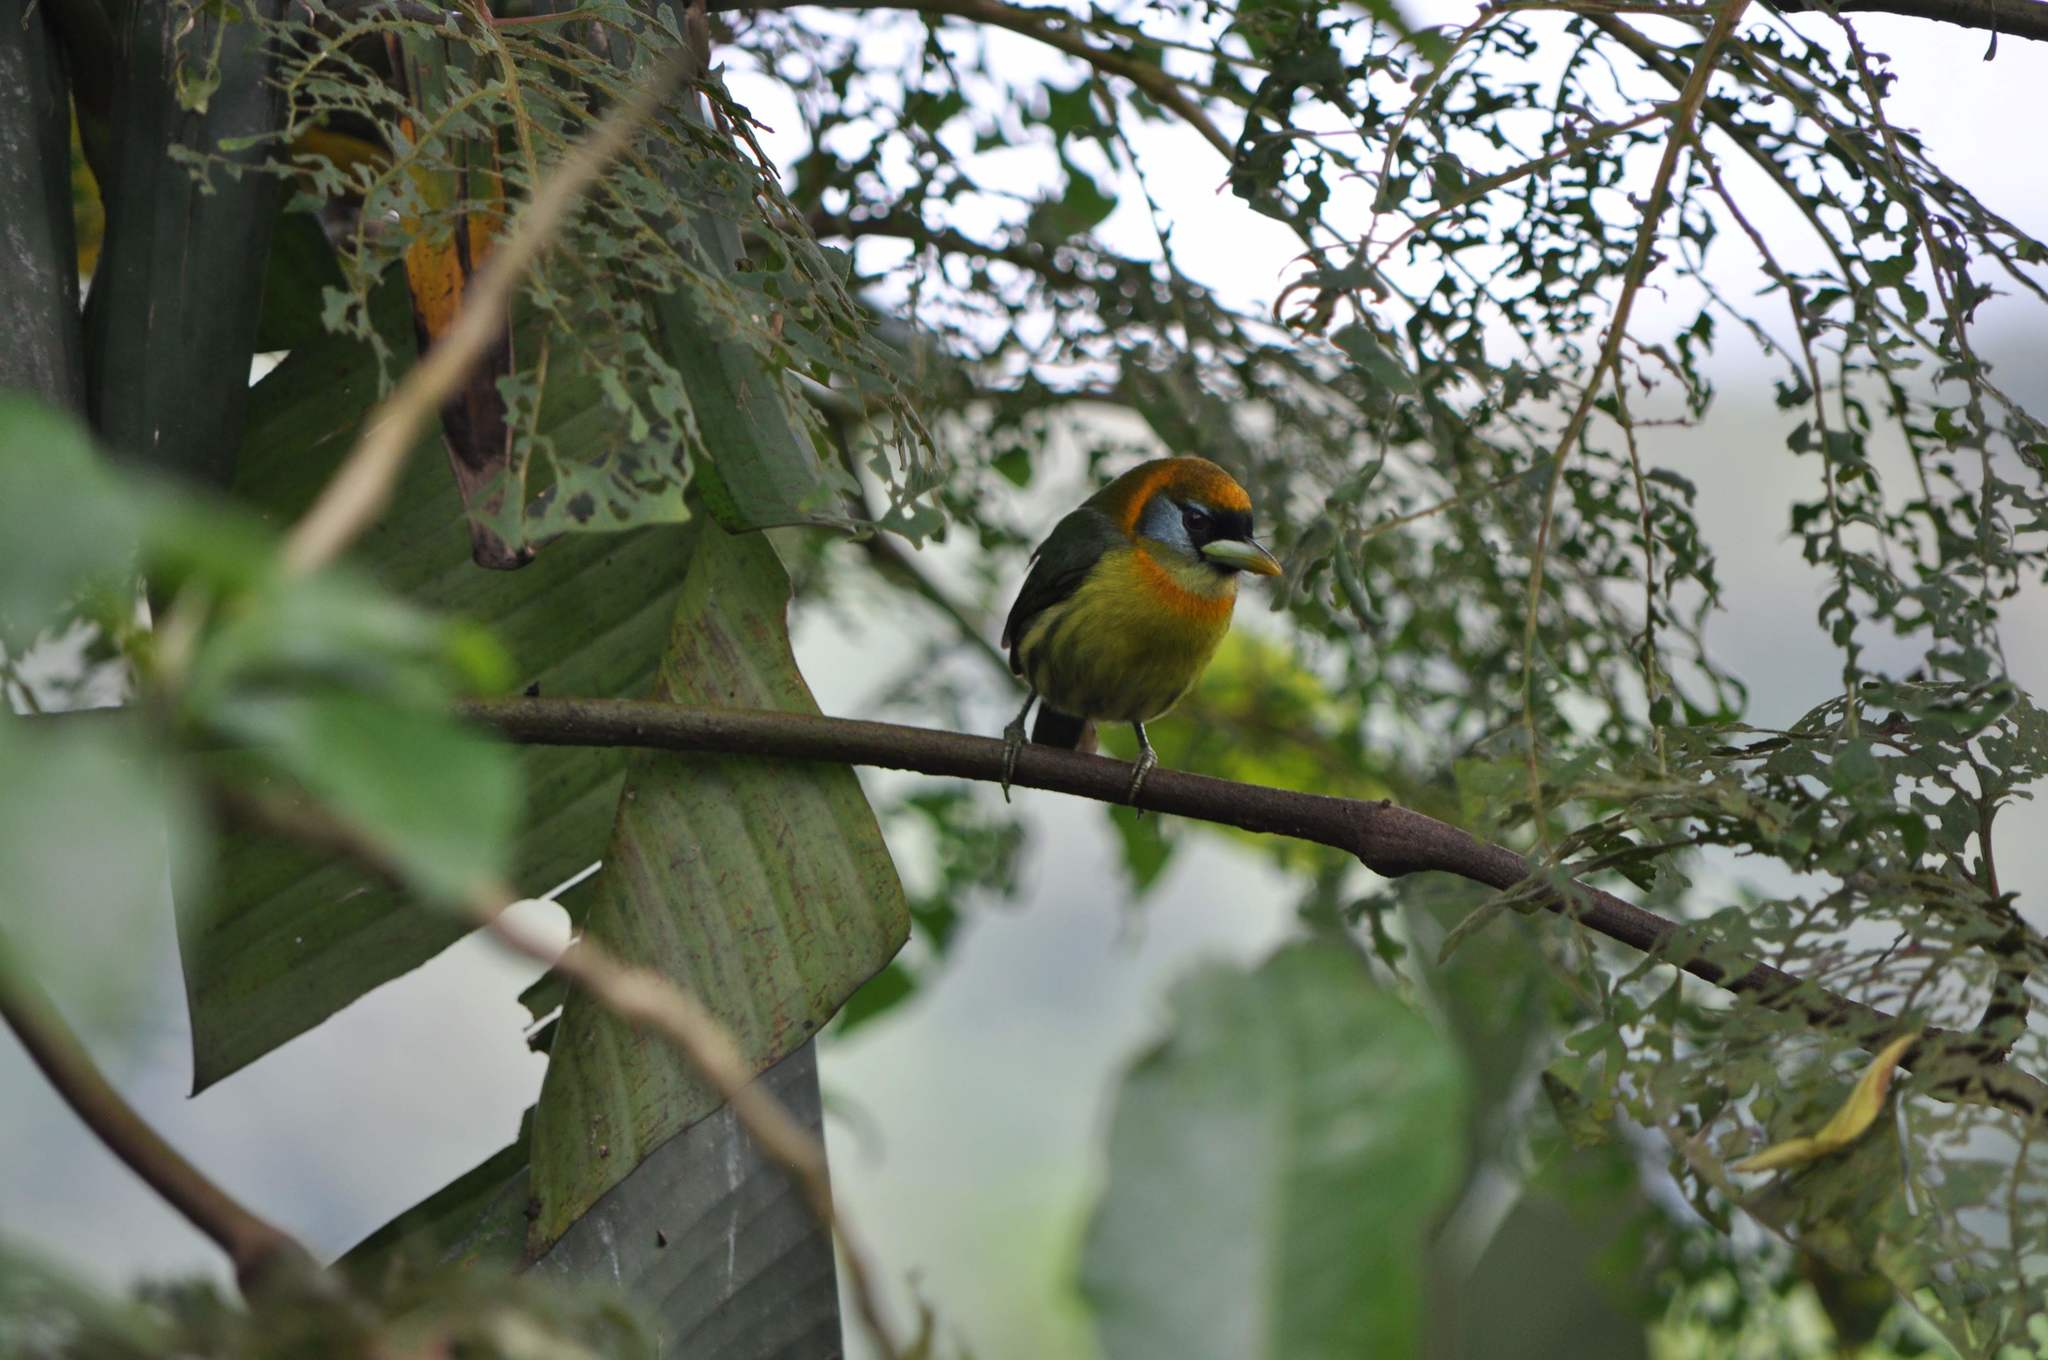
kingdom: Animalia
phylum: Chordata
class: Aves
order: Piciformes
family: Capitonidae
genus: Eubucco
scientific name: Eubucco bourcierii
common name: Red-headed barbet
